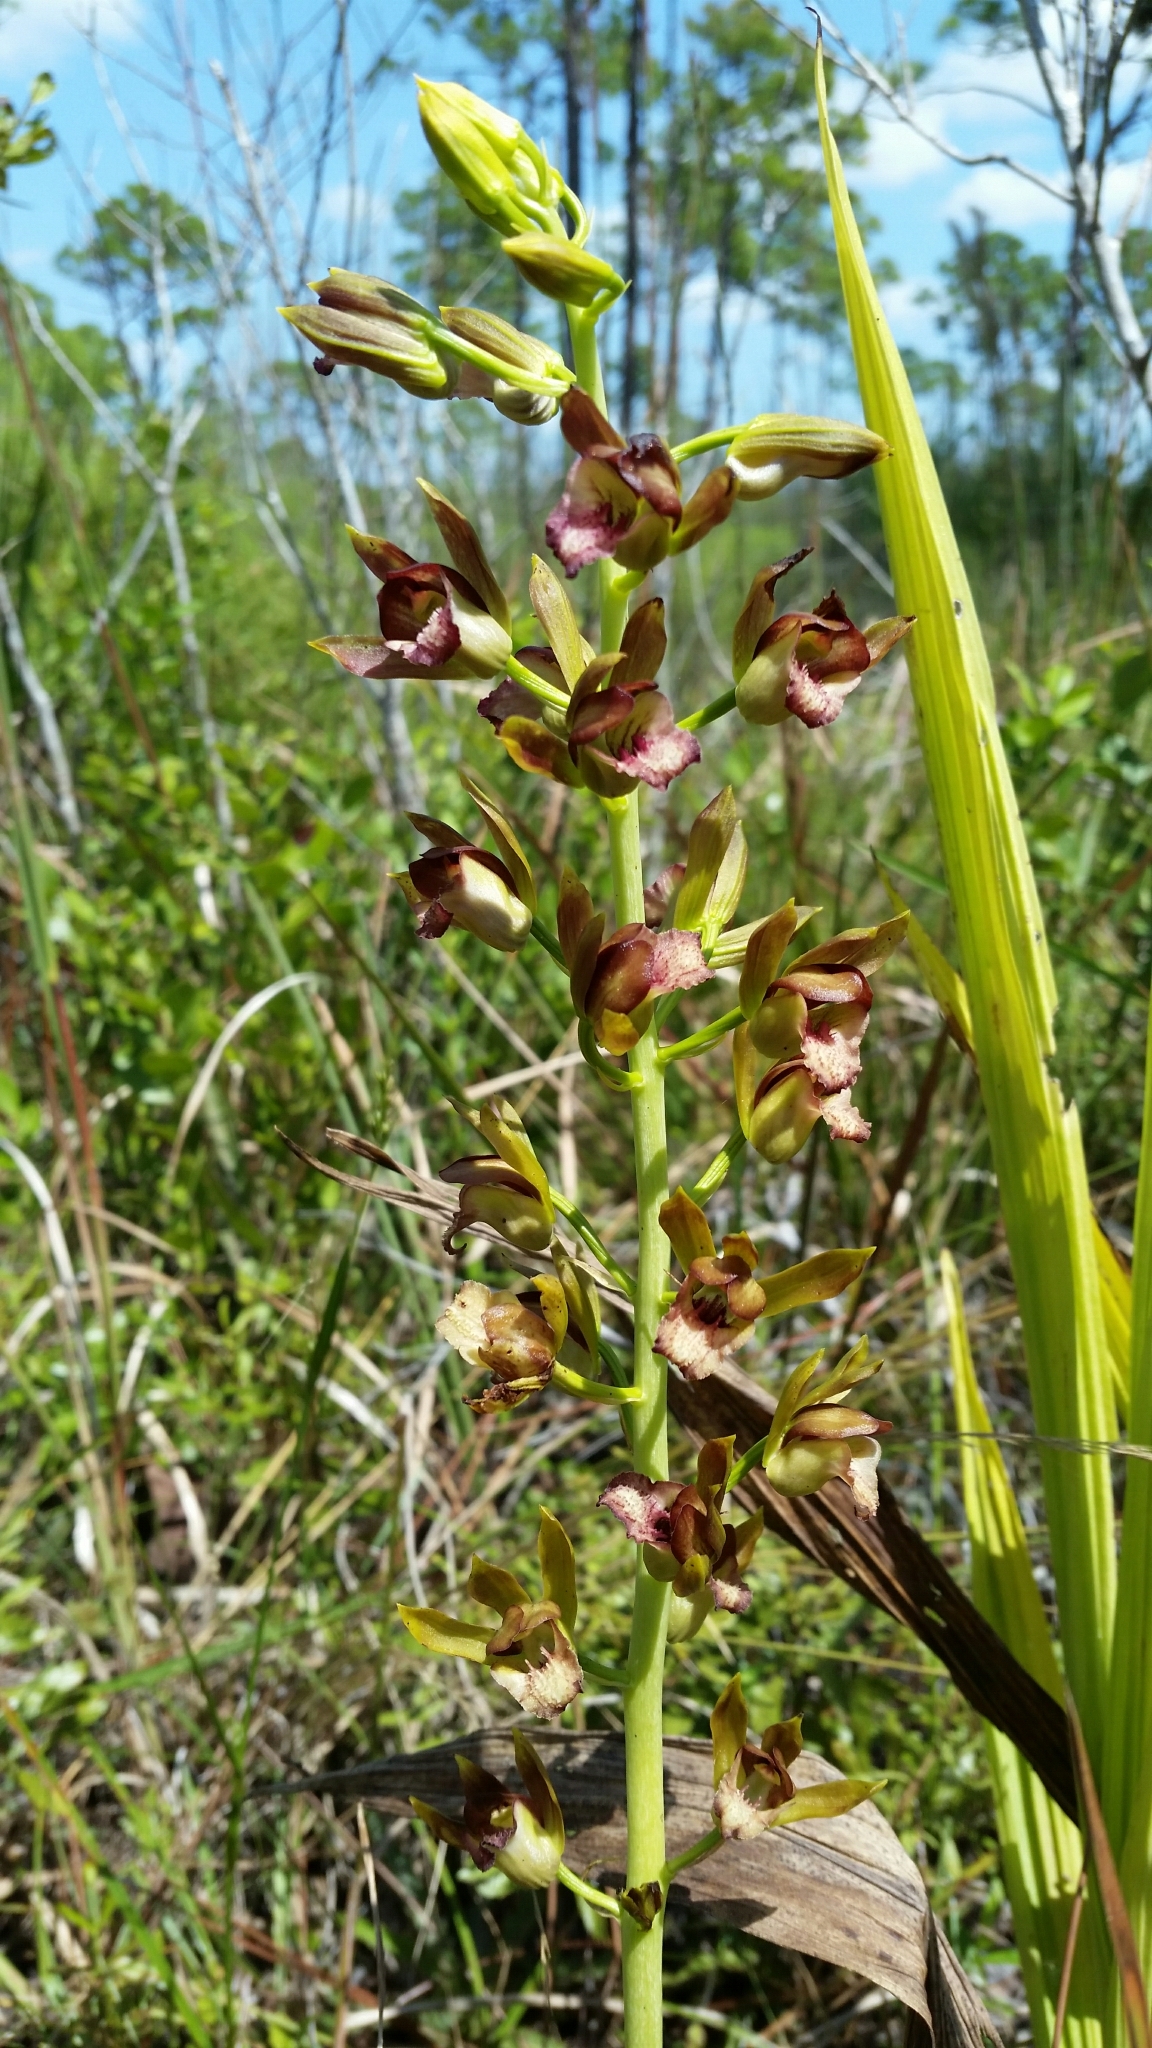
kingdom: Plantae
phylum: Tracheophyta
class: Liliopsida
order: Asparagales
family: Orchidaceae
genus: Eulophia
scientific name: Eulophia alta
